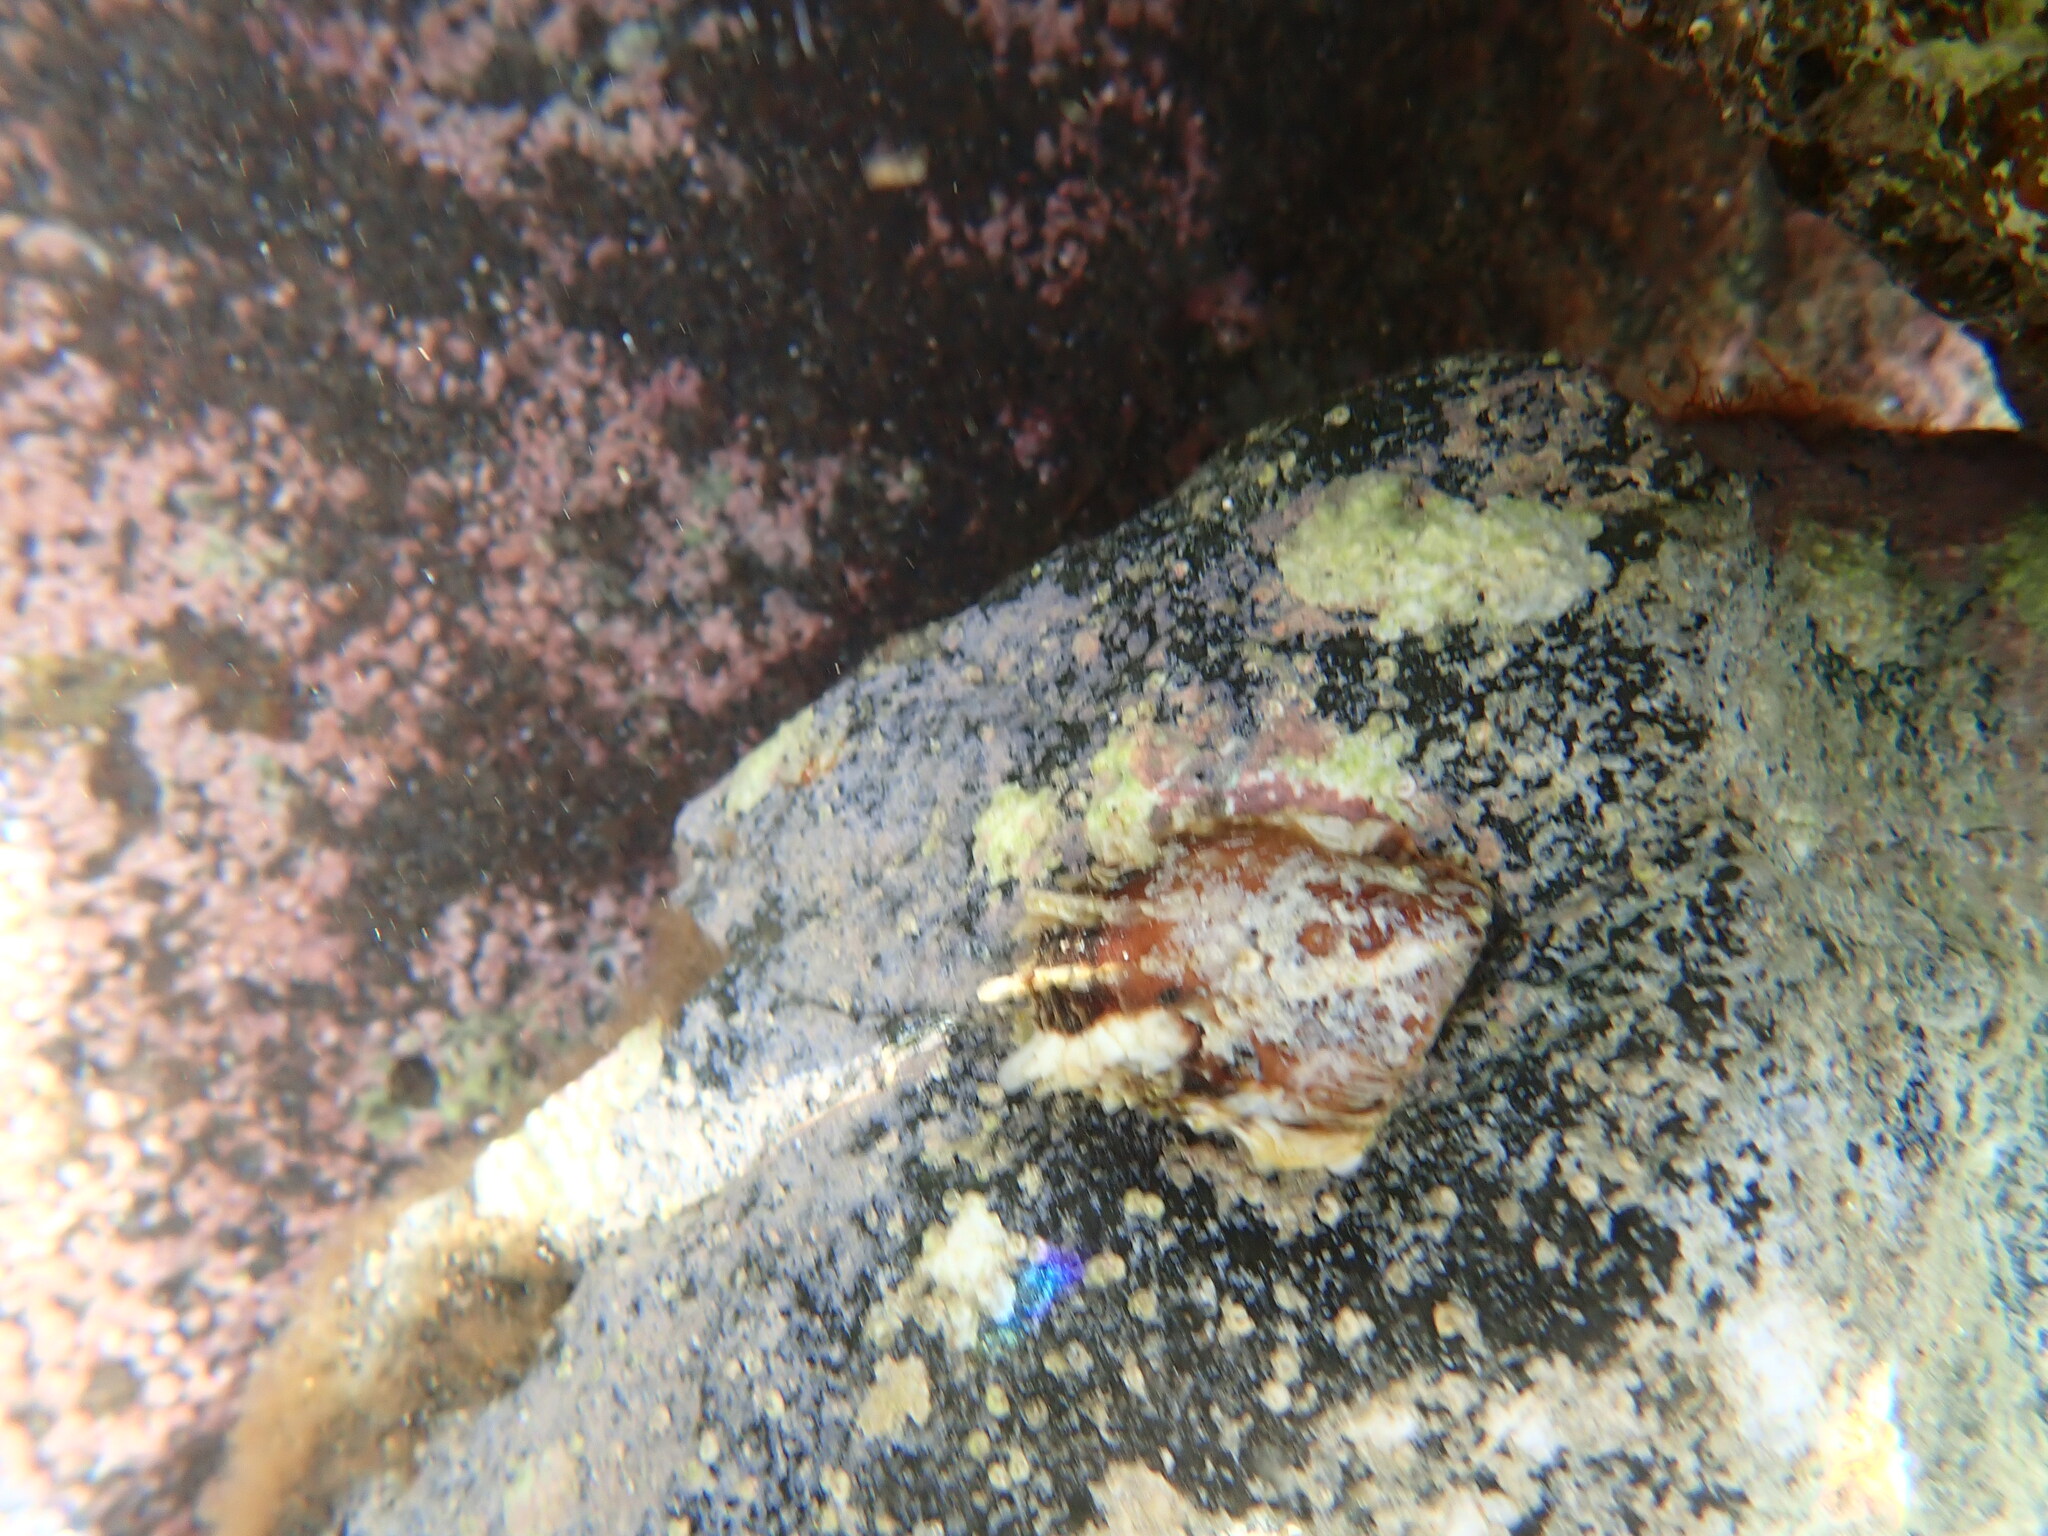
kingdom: Animalia
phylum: Mollusca
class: Bivalvia
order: Ostreida
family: Margaritidae
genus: Pinctada
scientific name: Pinctada imbricata
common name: Atlantic pearl-oyster
